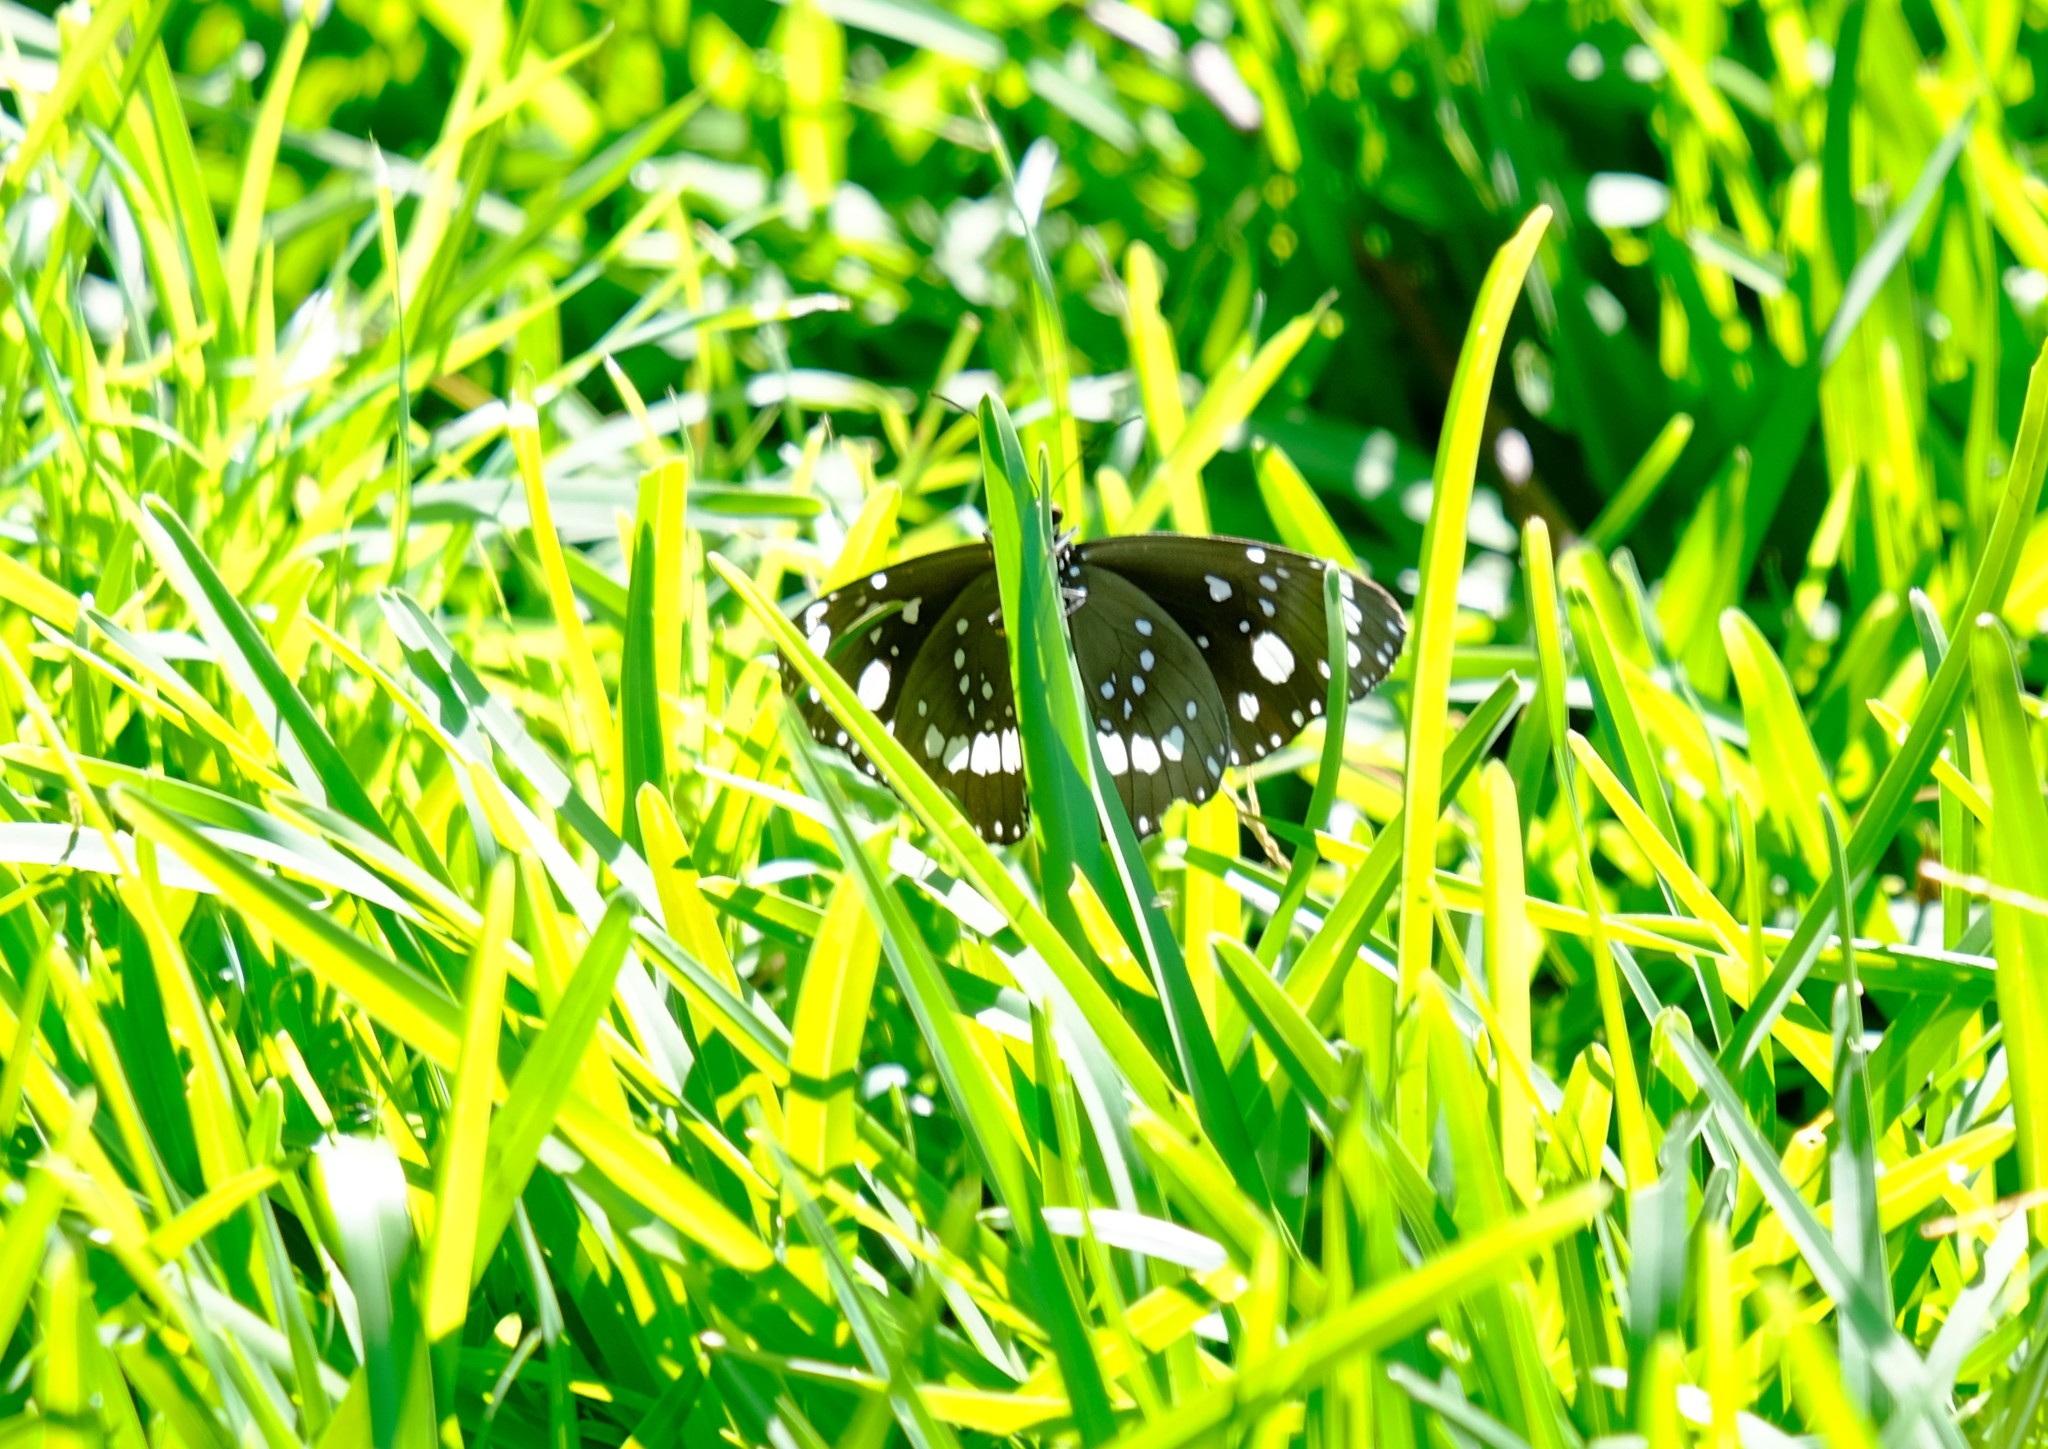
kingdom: Animalia
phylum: Arthropoda
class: Insecta
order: Lepidoptera
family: Nymphalidae
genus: Euploea
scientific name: Euploea core
